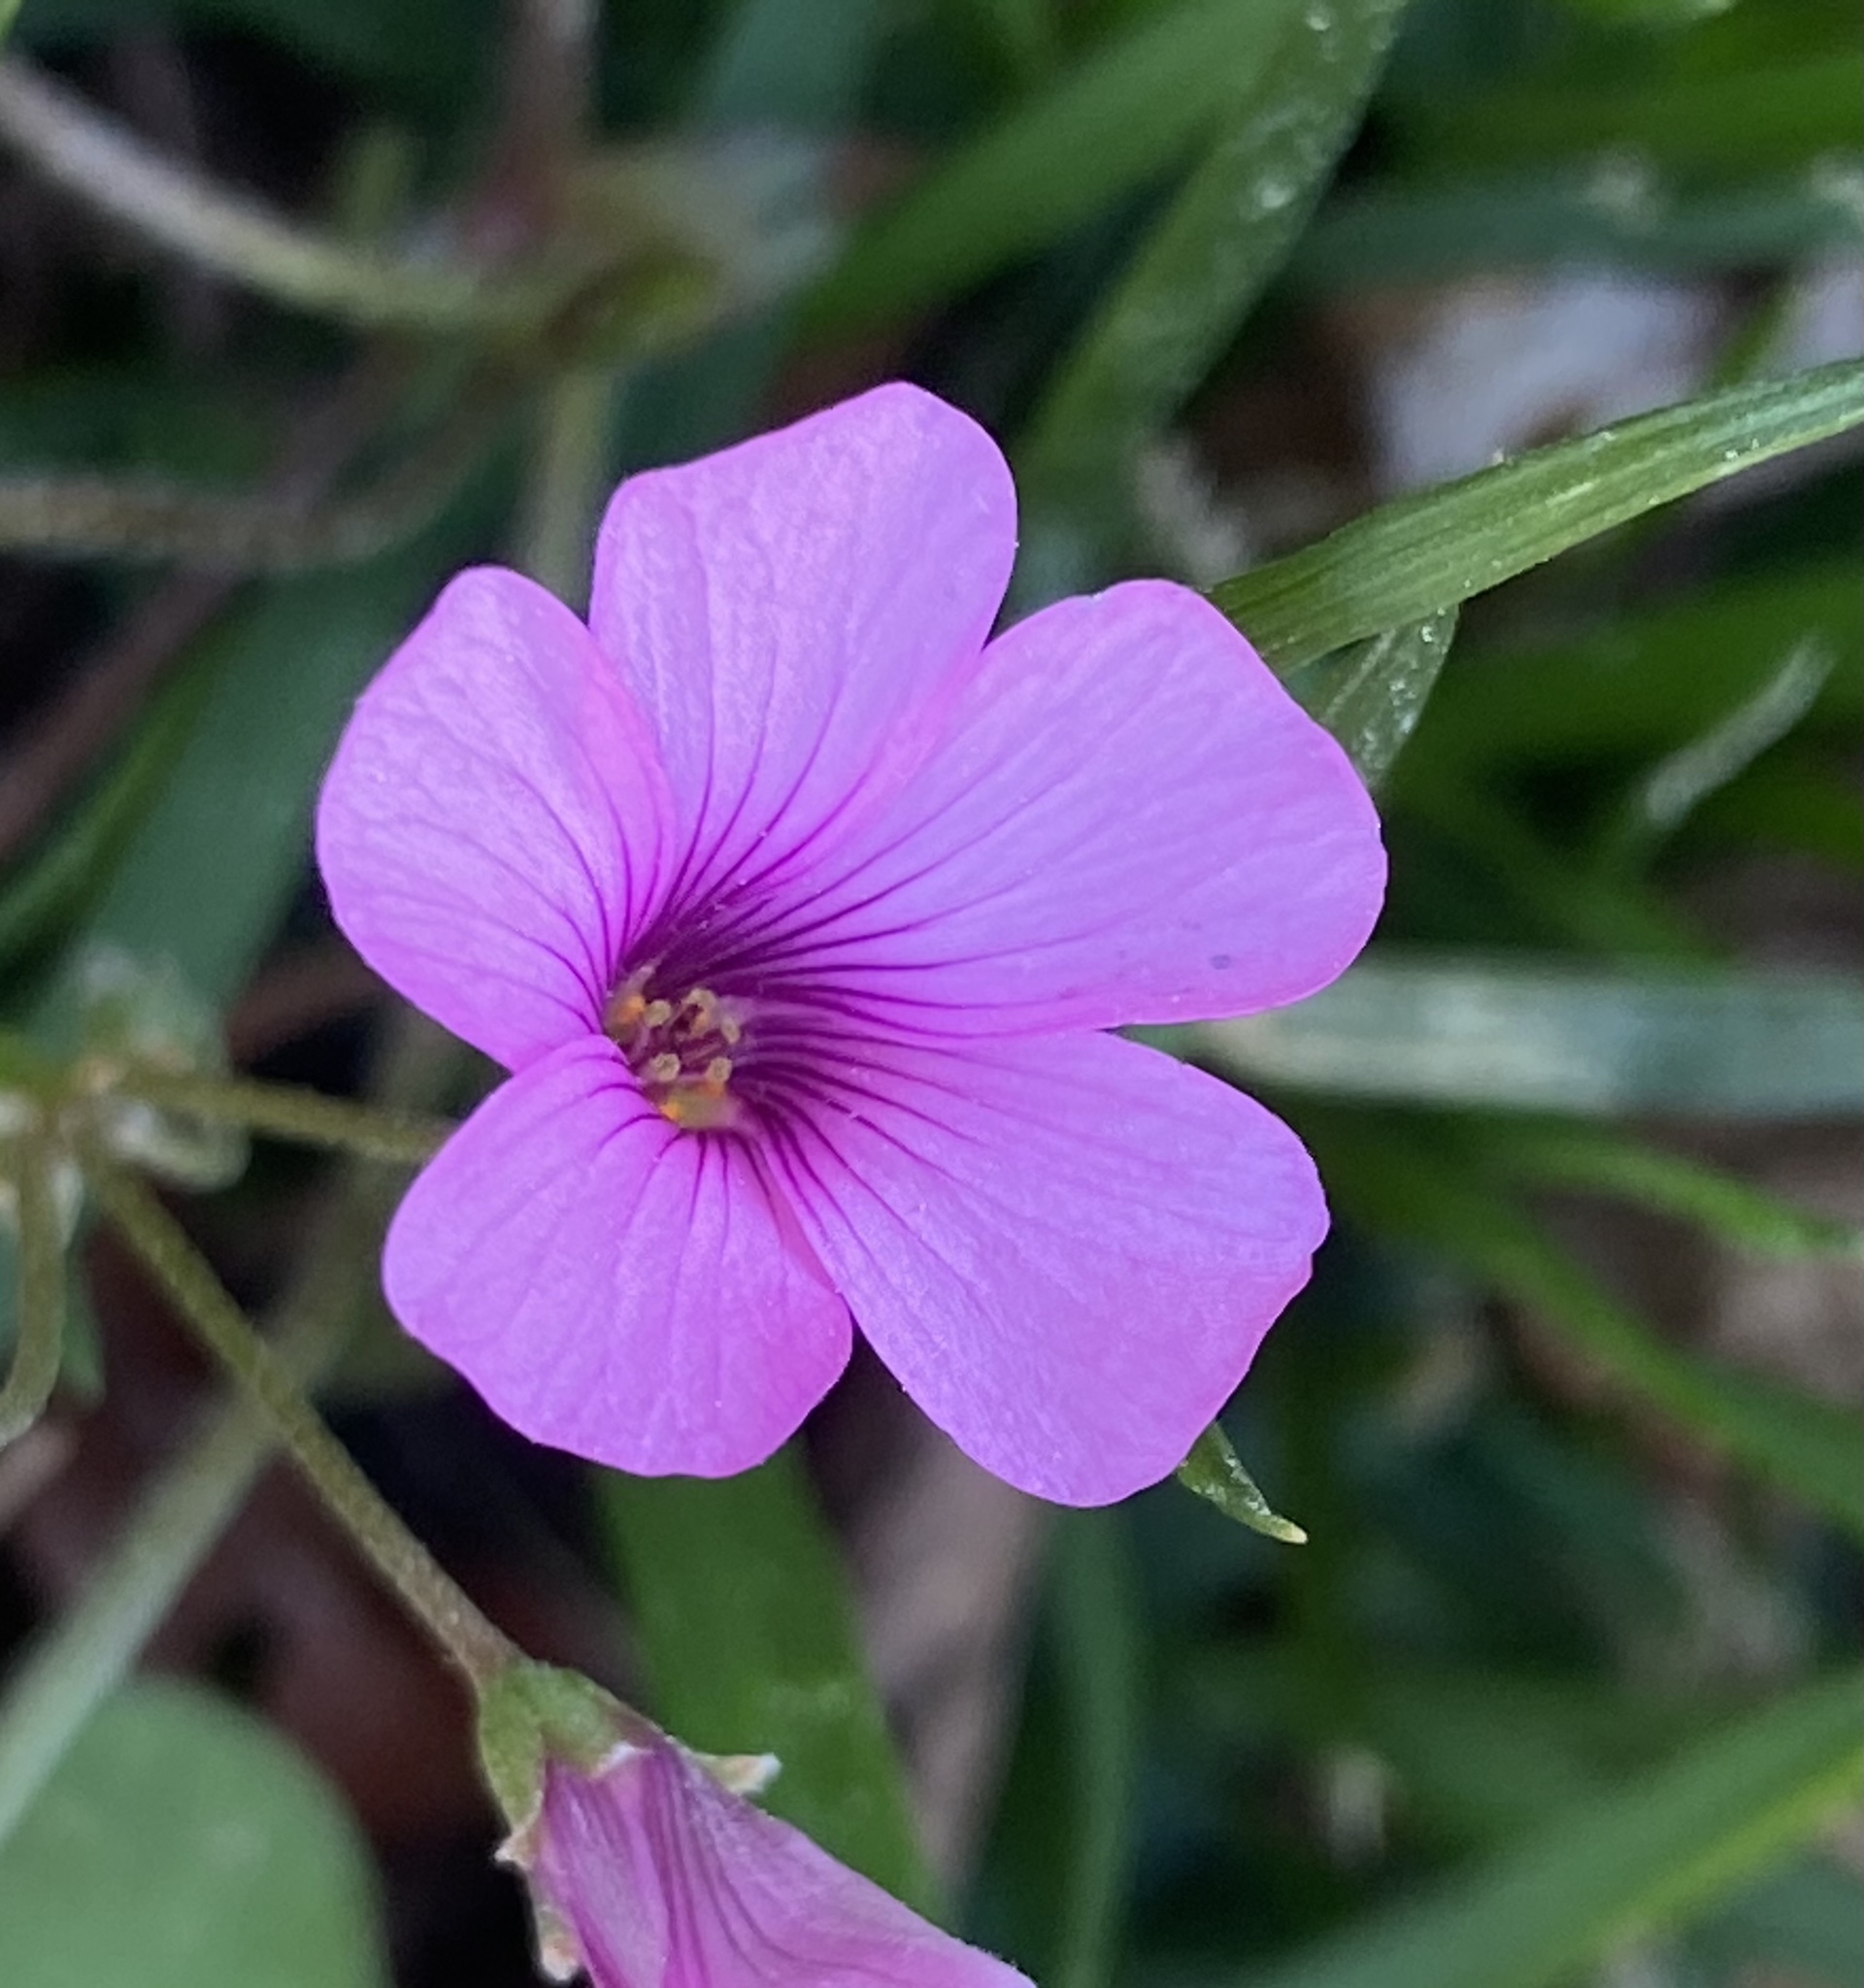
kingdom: Plantae
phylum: Tracheophyta
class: Magnoliopsida
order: Oxalidales
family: Oxalidaceae
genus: Oxalis
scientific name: Oxalis articulata
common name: Pink-sorrel
